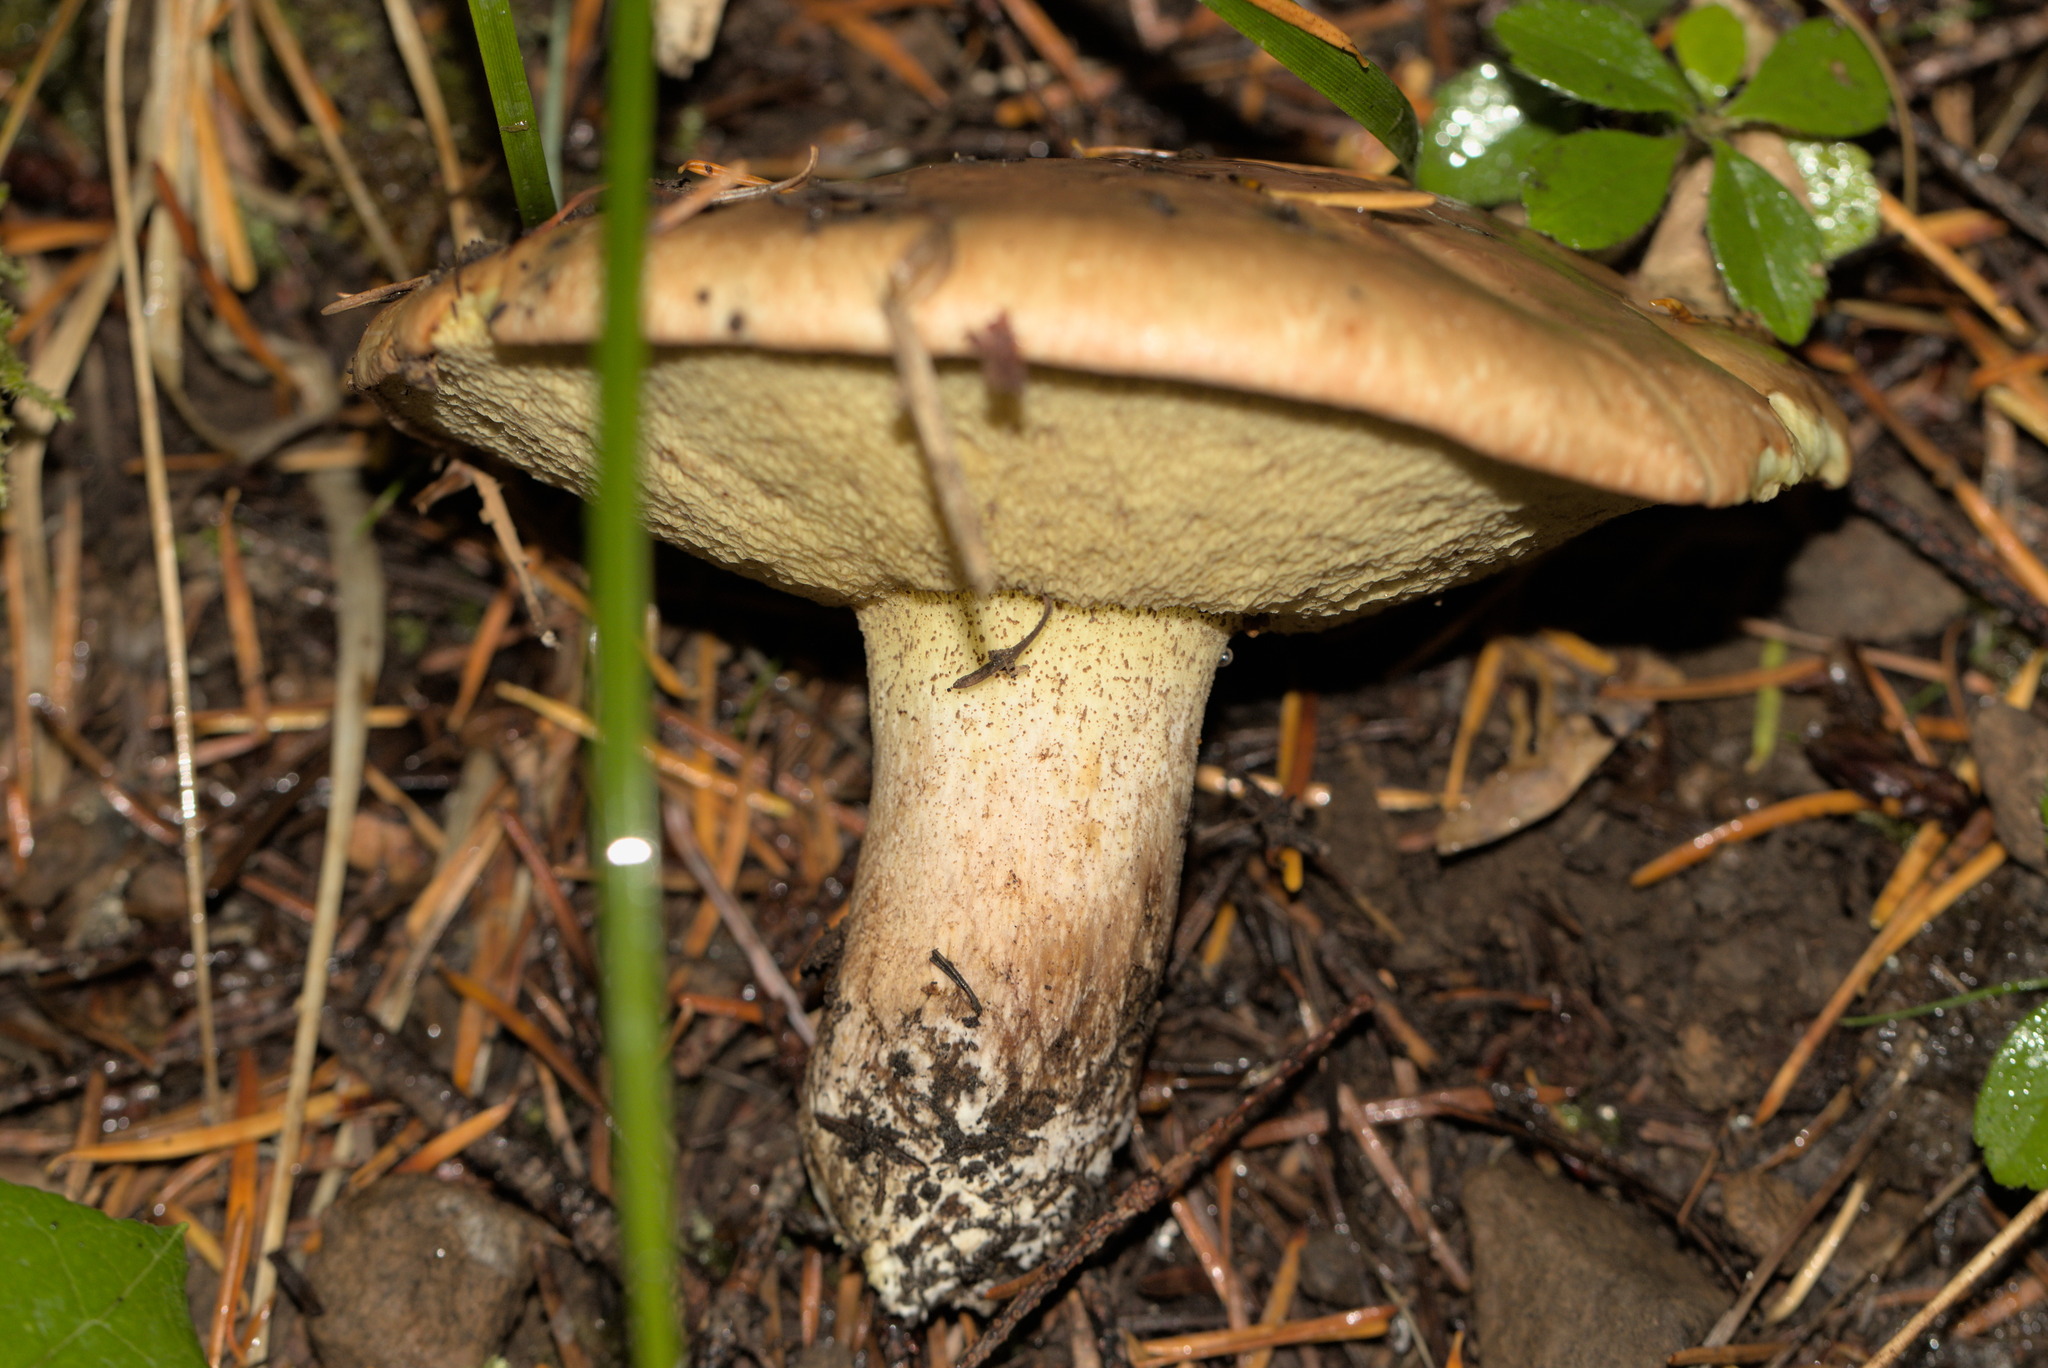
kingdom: Fungi
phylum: Basidiomycota
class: Agaricomycetes
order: Boletales
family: Suillaceae
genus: Suillus
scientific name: Suillus punctatipes
